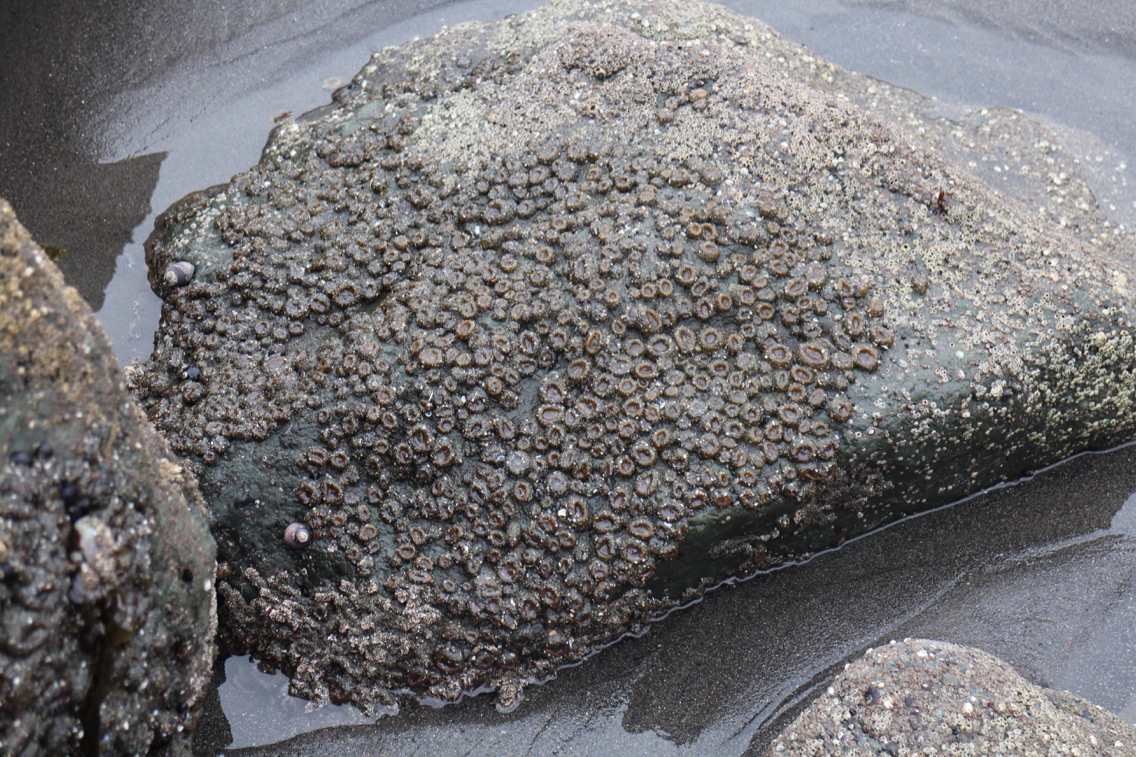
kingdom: Animalia
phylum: Cnidaria
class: Anthozoa
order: Actiniaria
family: Actiniidae
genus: Anthopleura
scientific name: Anthopleura elegantissima
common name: Clonal anemone
